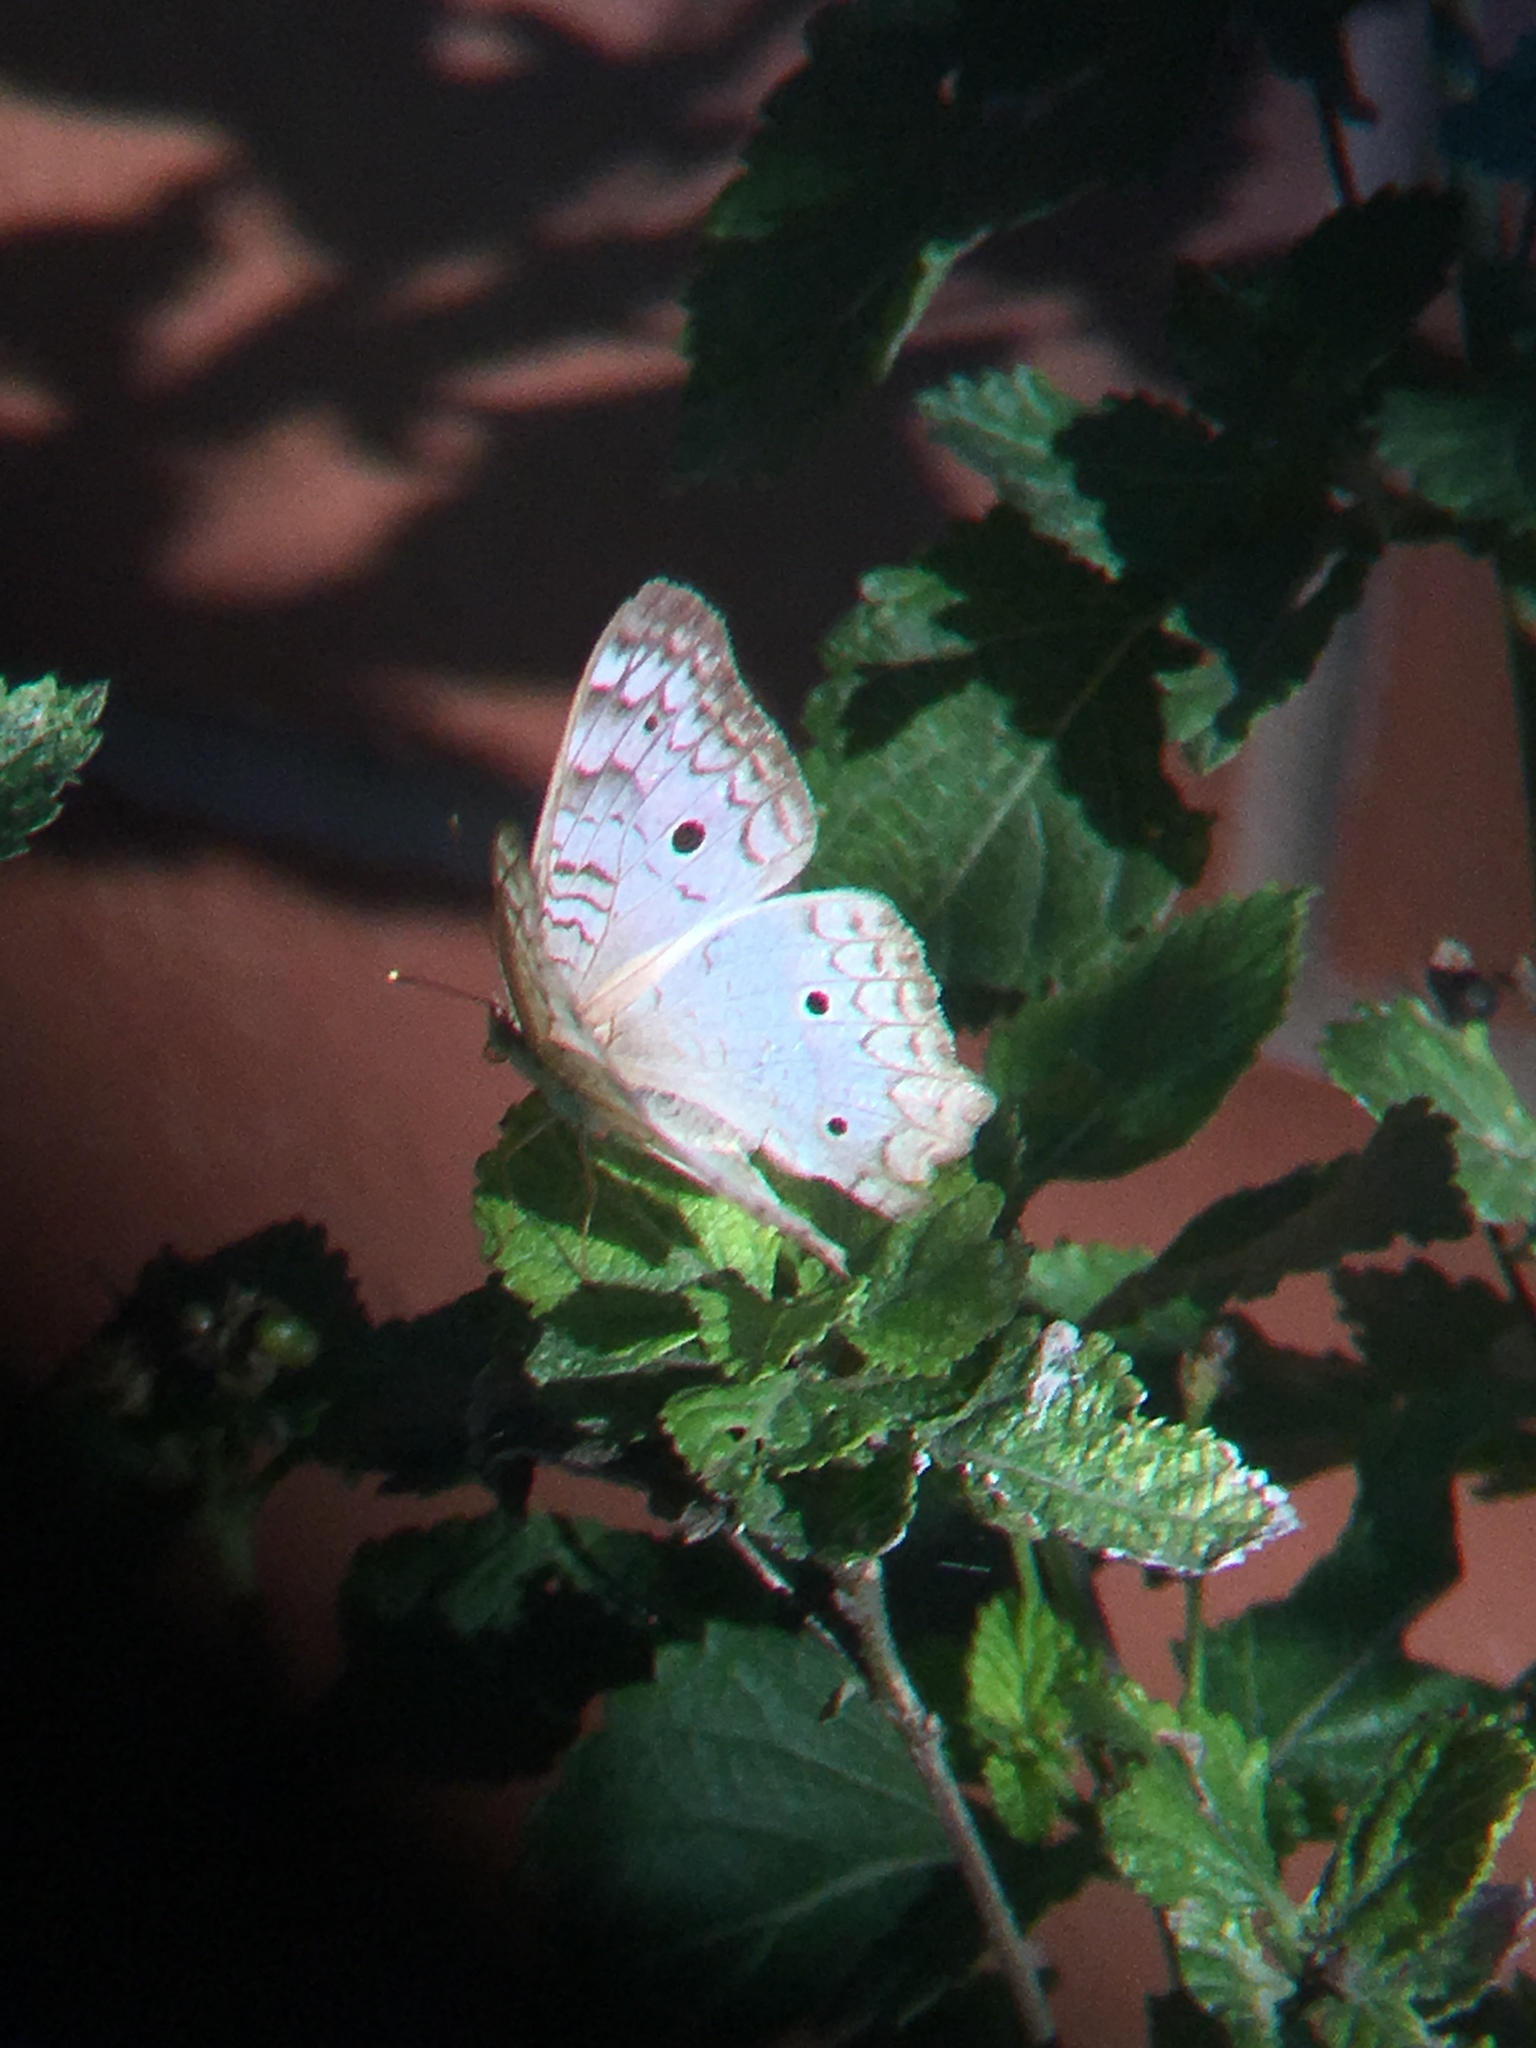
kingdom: Animalia
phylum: Arthropoda
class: Insecta
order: Lepidoptera
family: Nymphalidae
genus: Anartia
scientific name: Anartia jatrophae
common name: White peacock
